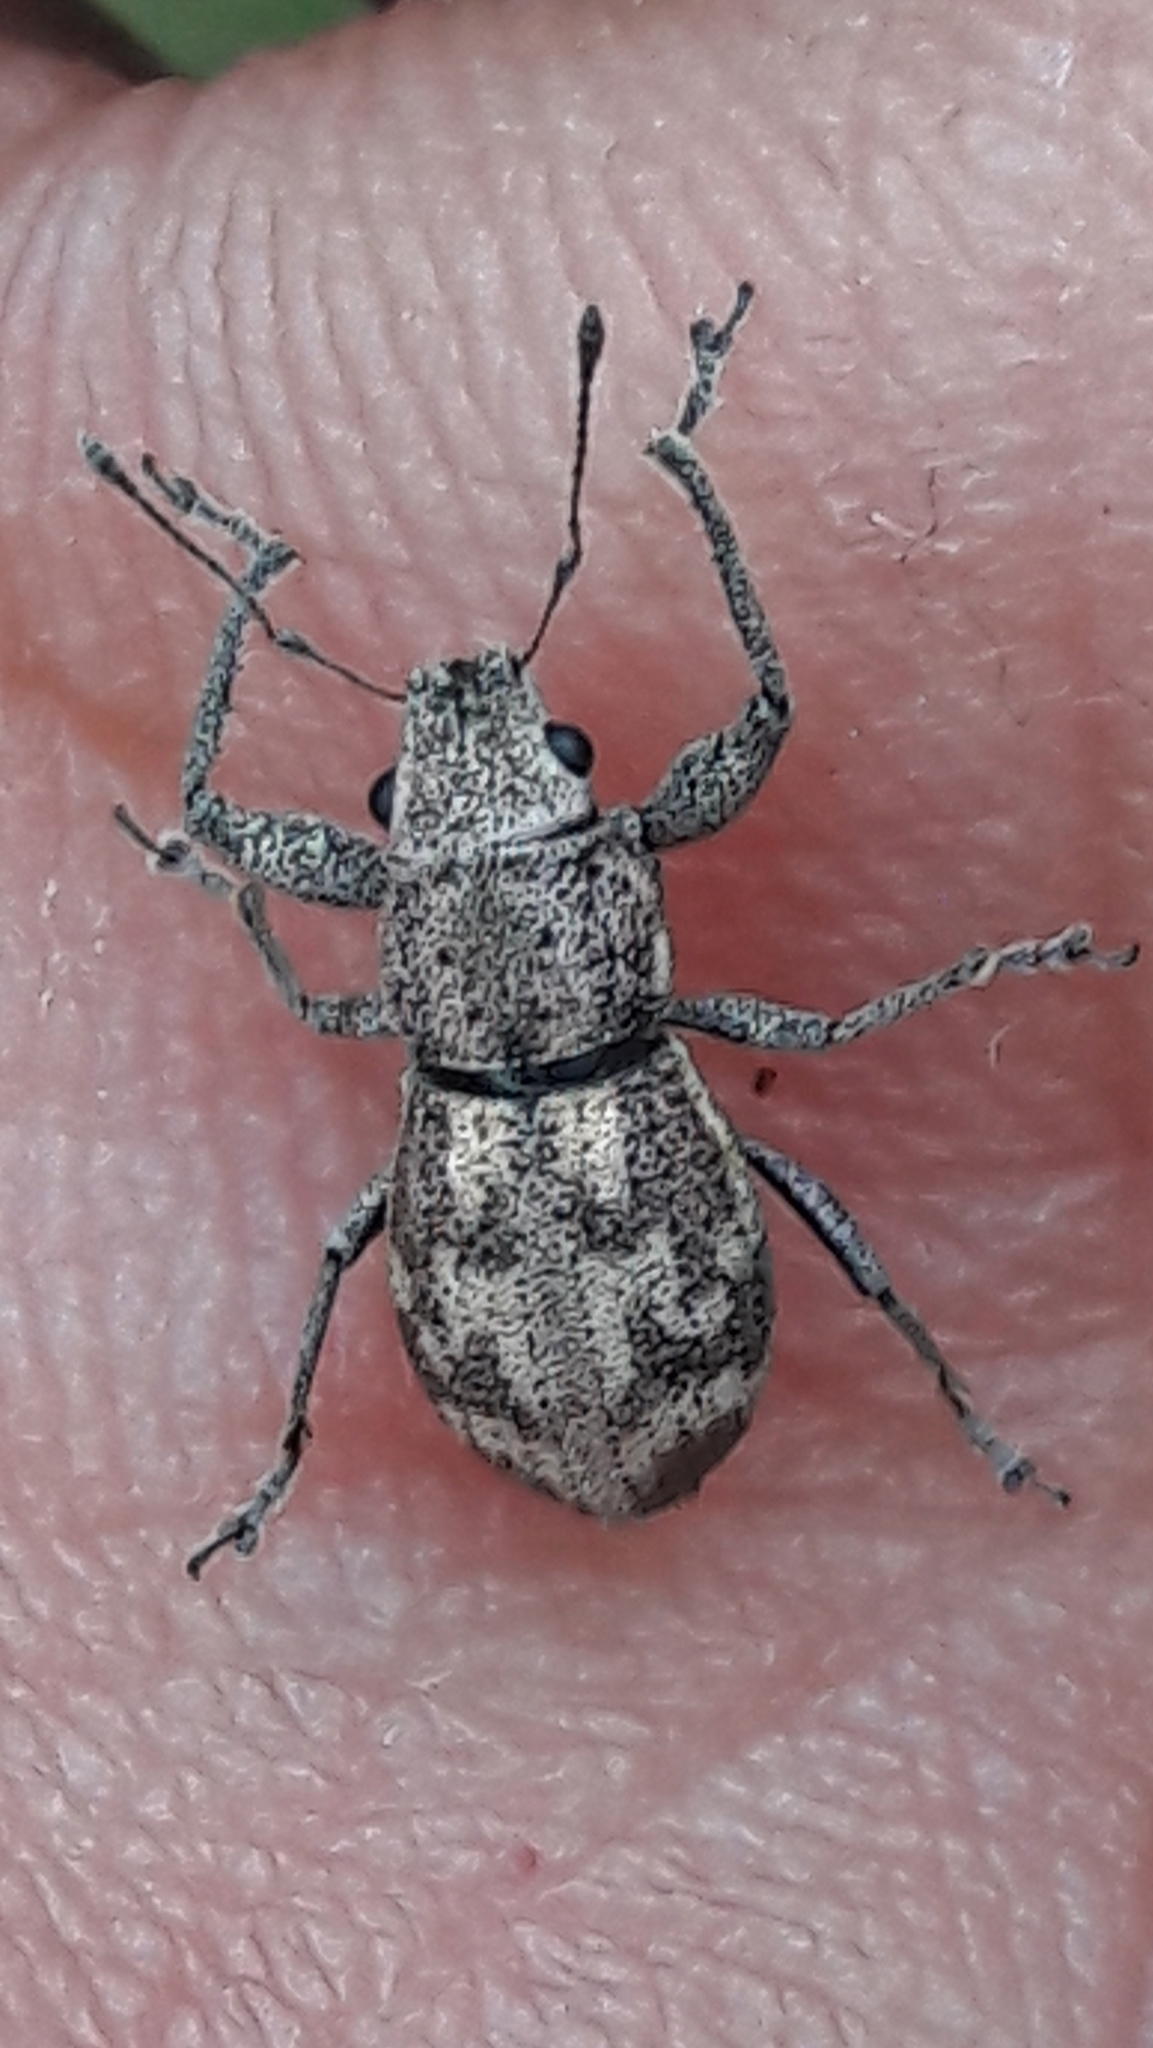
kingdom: Animalia
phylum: Arthropoda
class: Insecta
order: Coleoptera
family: Curculionidae
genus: Parapantomorus
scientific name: Parapantomorus fluctuosus
